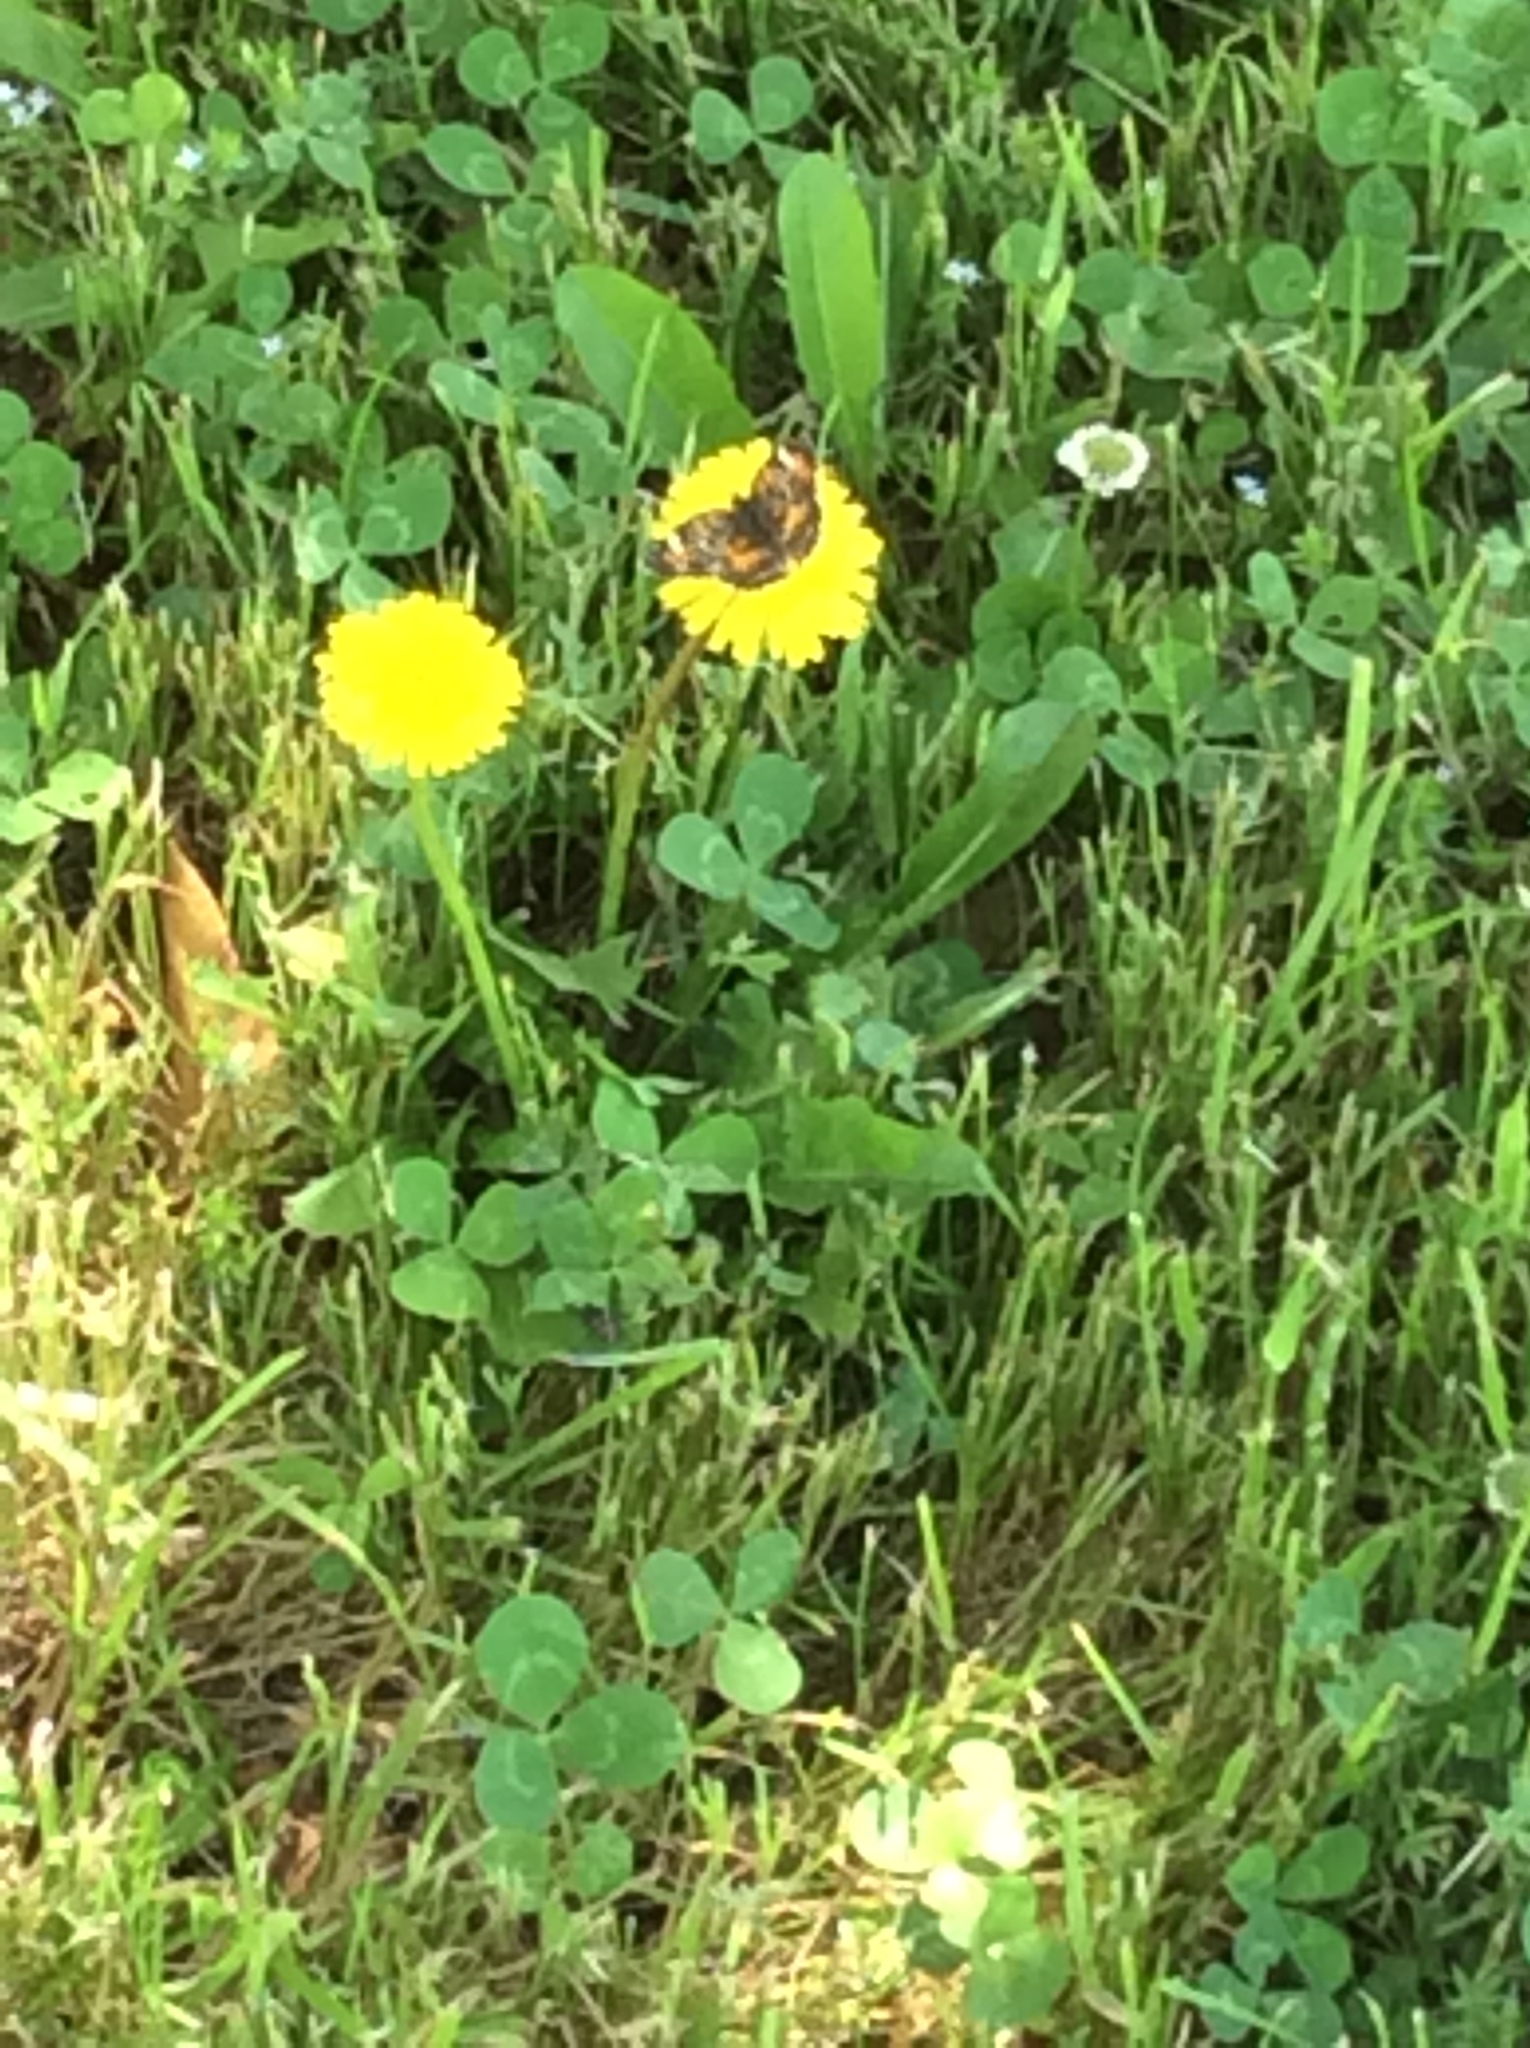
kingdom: Animalia
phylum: Arthropoda
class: Insecta
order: Lepidoptera
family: Nymphalidae
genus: Phyciodes
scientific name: Phyciodes phaon
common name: Phaon crescent
